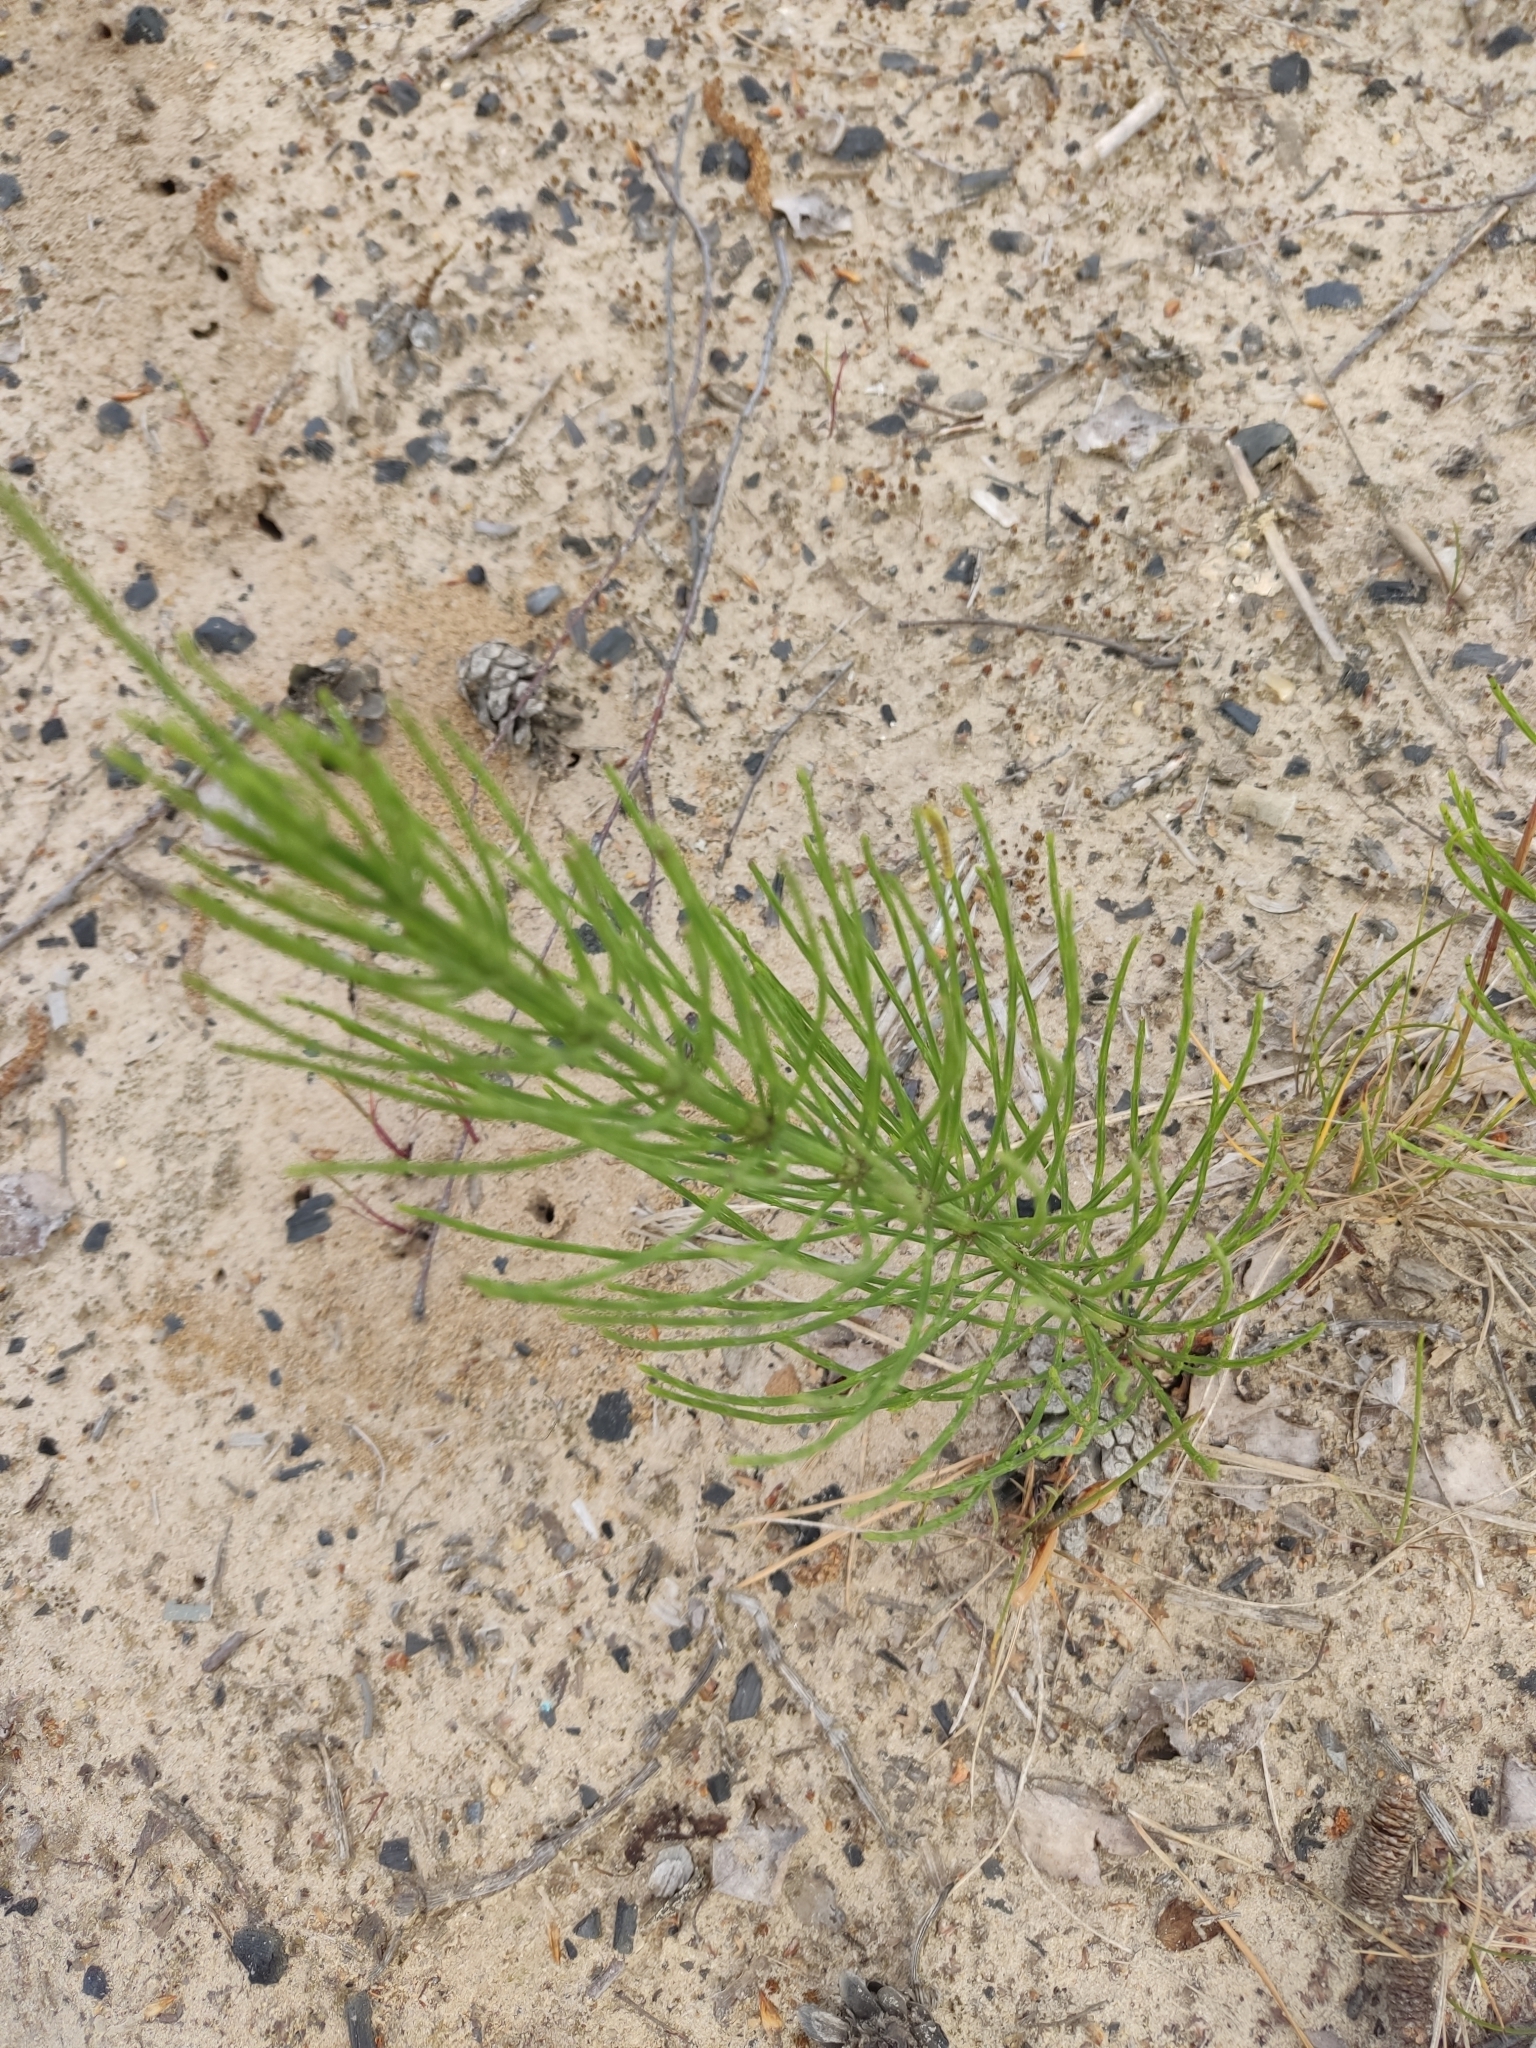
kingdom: Plantae
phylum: Tracheophyta
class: Polypodiopsida
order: Equisetales
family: Equisetaceae
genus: Equisetum
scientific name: Equisetum arvense
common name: Field horsetail
